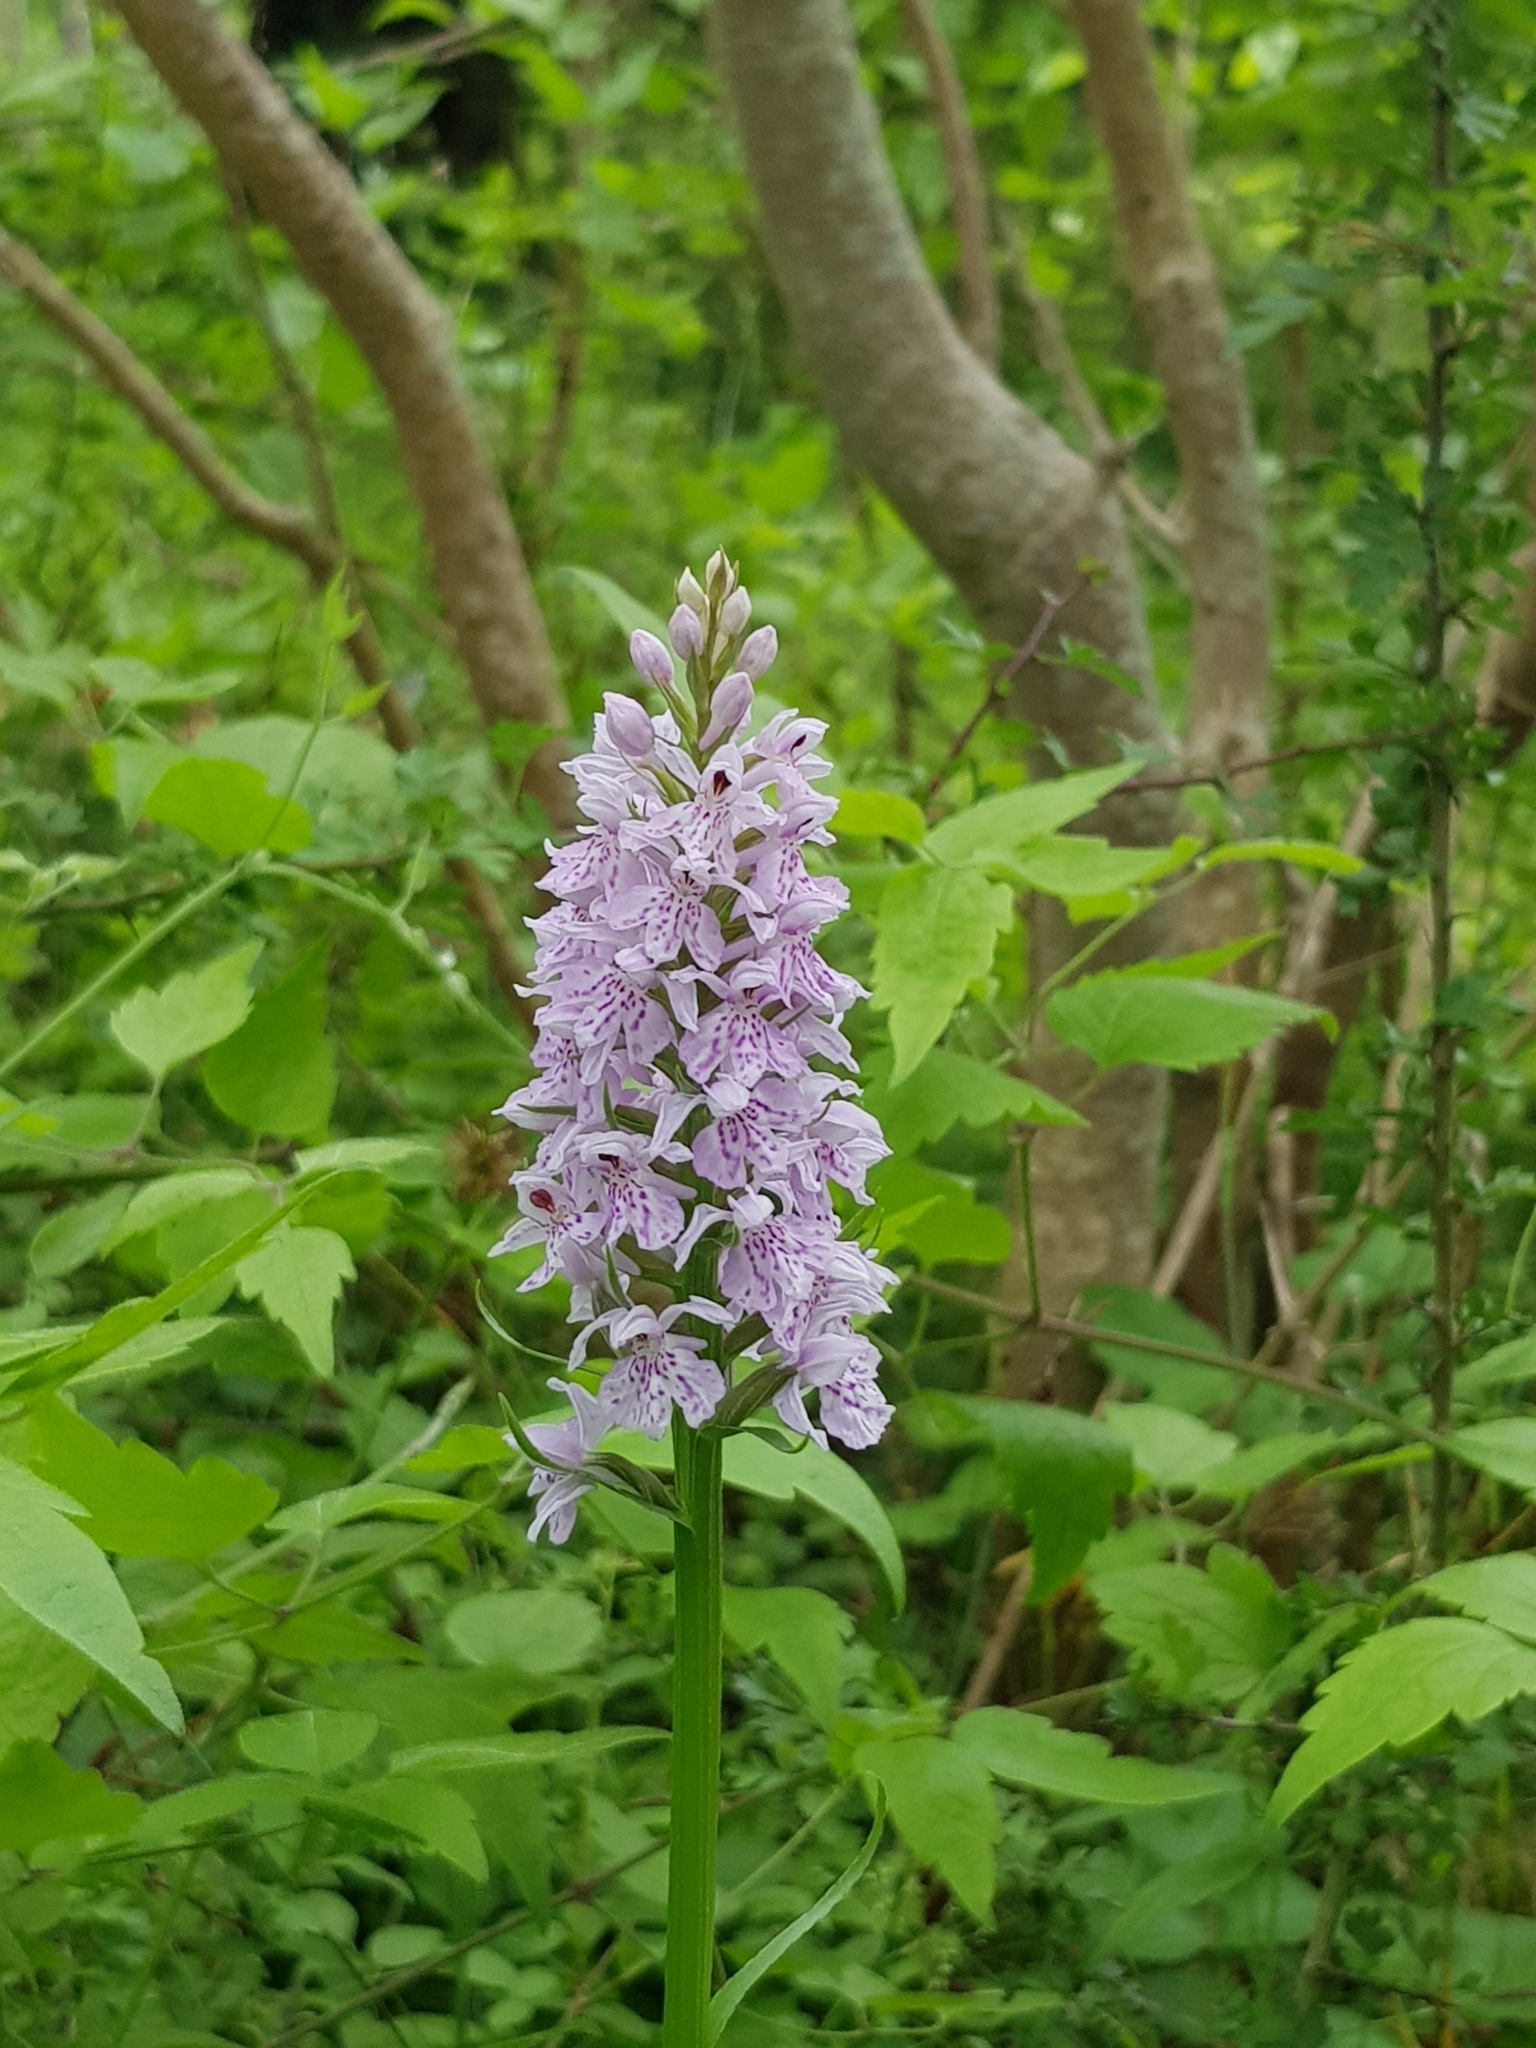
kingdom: Plantae
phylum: Tracheophyta
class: Liliopsida
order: Asparagales
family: Orchidaceae
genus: Dactylorhiza
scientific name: Dactylorhiza maculata
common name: Heath spotted-orchid
